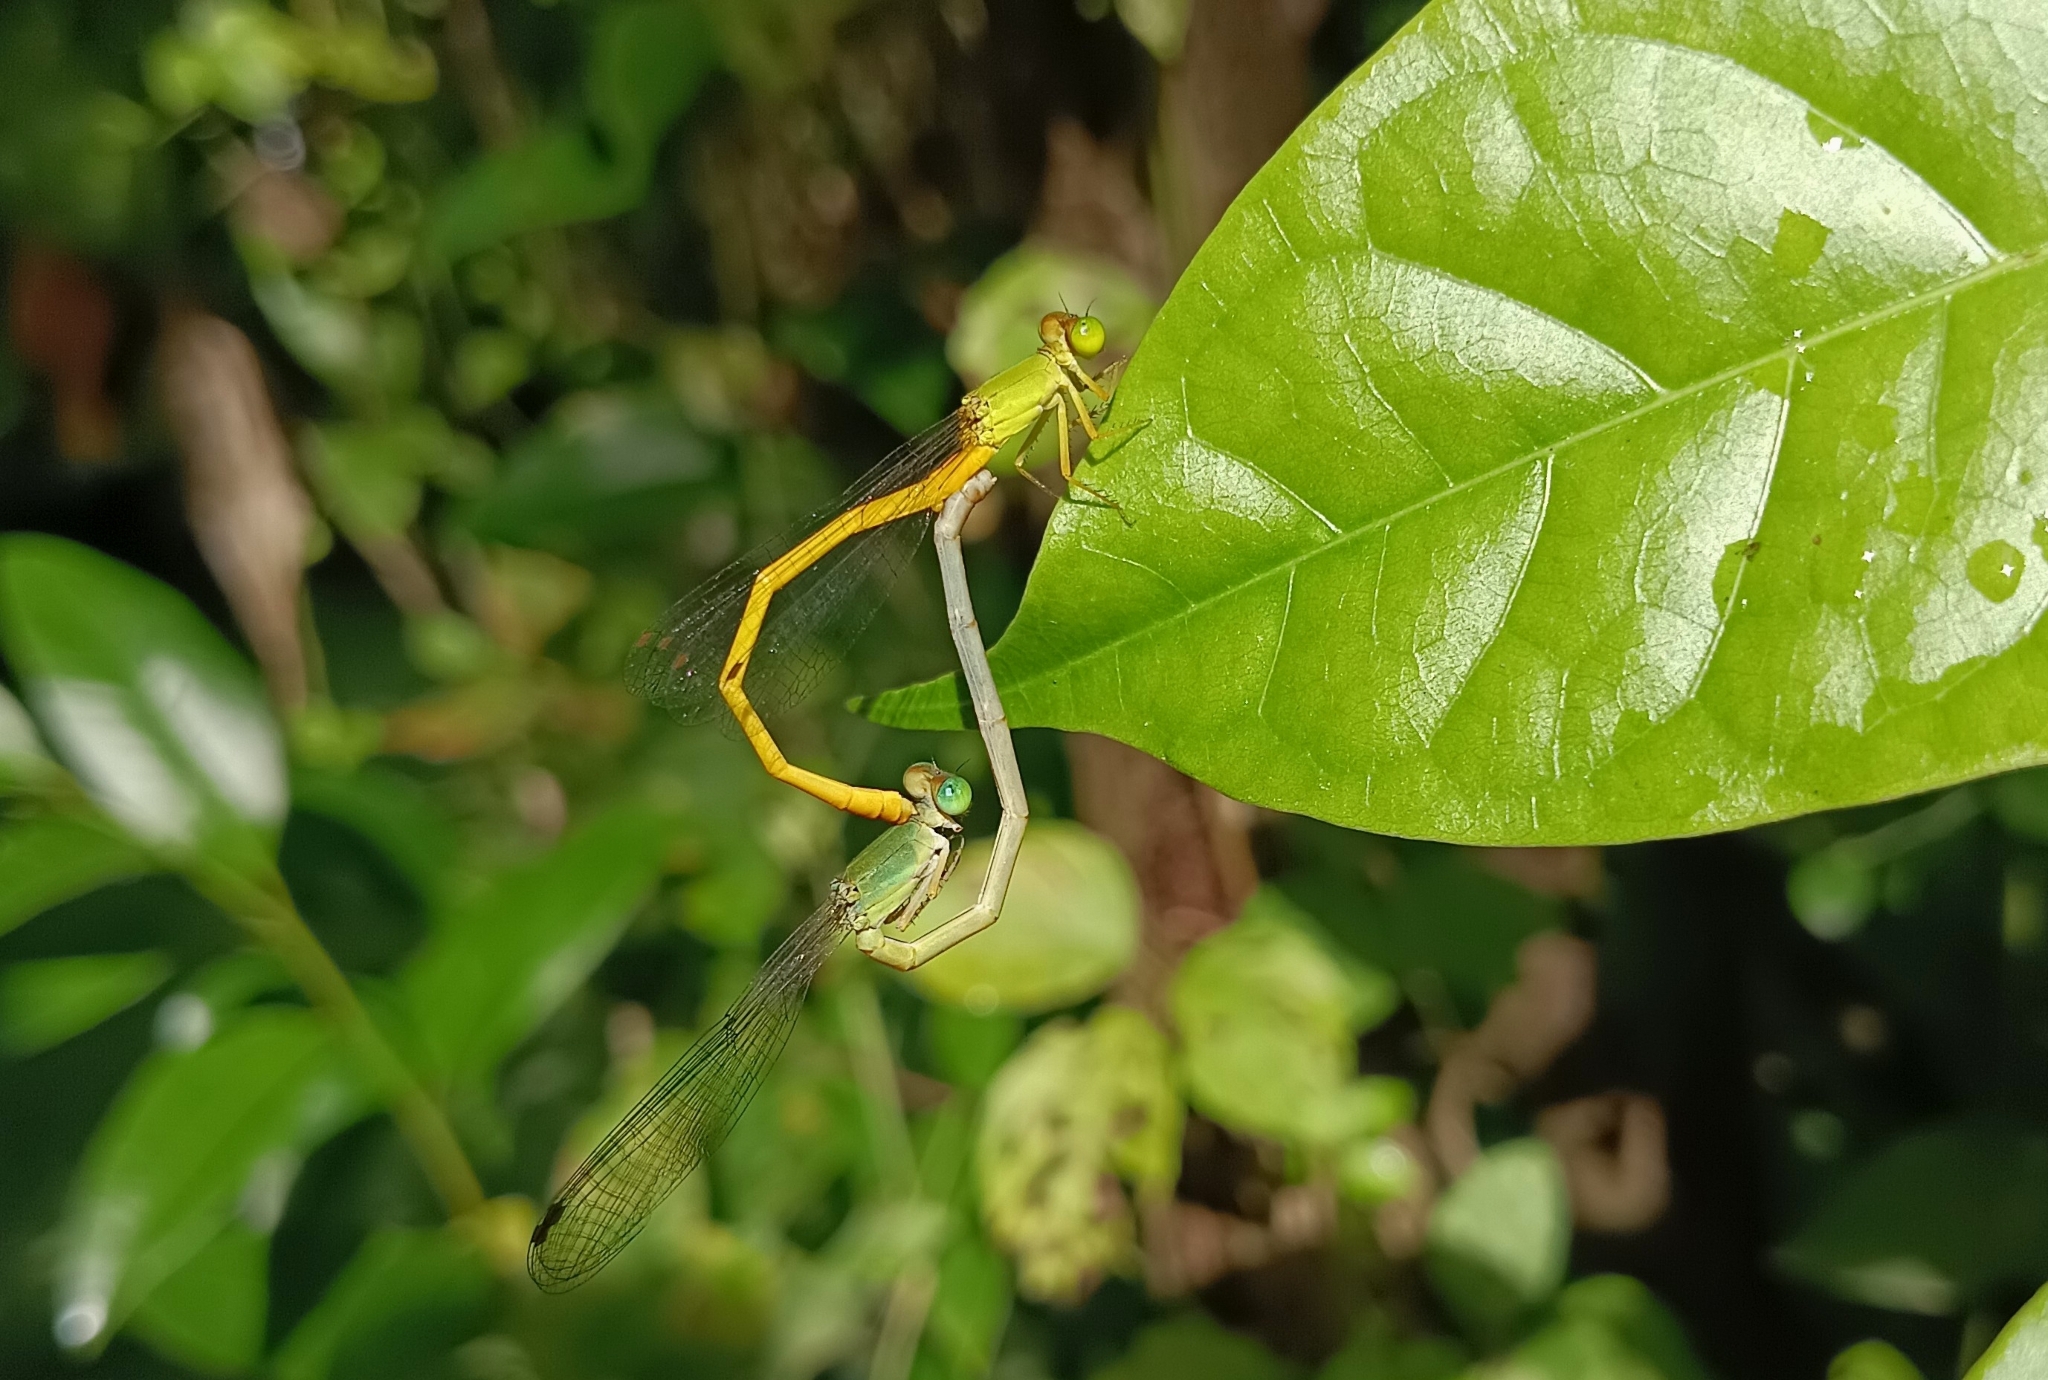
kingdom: Animalia
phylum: Arthropoda
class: Insecta
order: Odonata
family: Coenagrionidae
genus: Ceriagrion
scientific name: Ceriagrion coromandelianum
